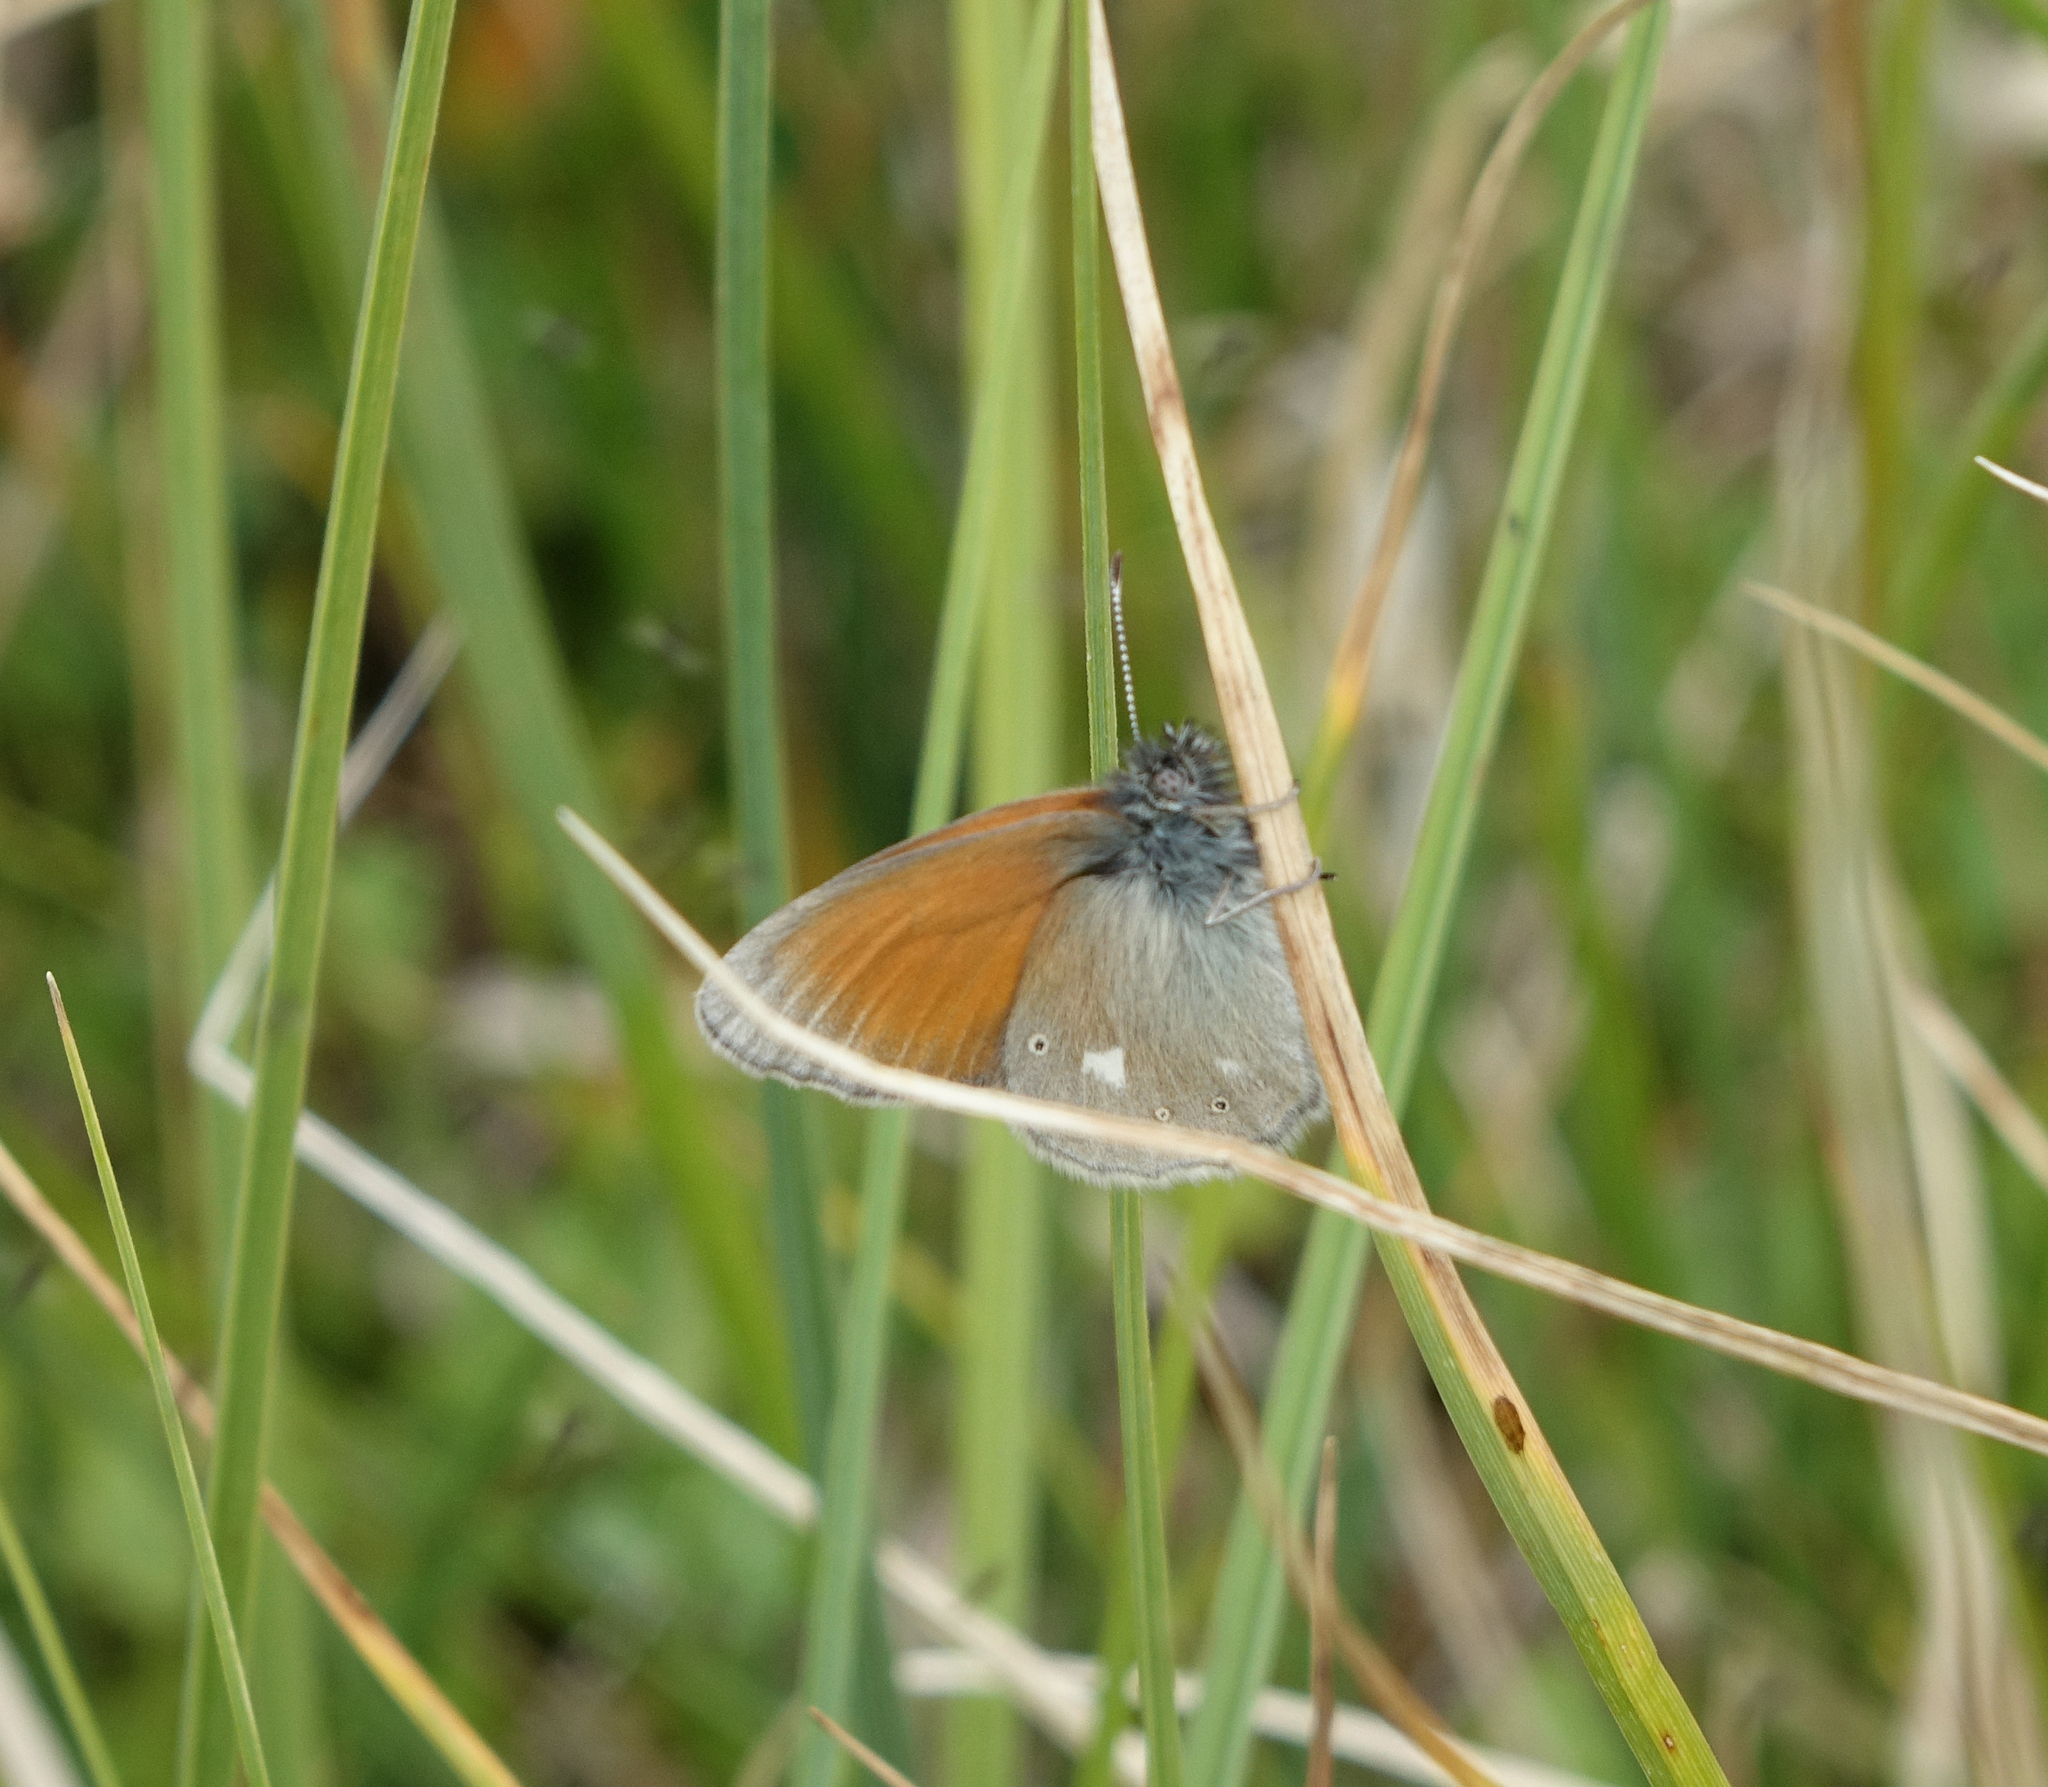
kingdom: Animalia
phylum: Arthropoda
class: Insecta
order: Lepidoptera
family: Nymphalidae
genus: Coenonympha
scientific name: Coenonympha tullia
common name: Large heath
